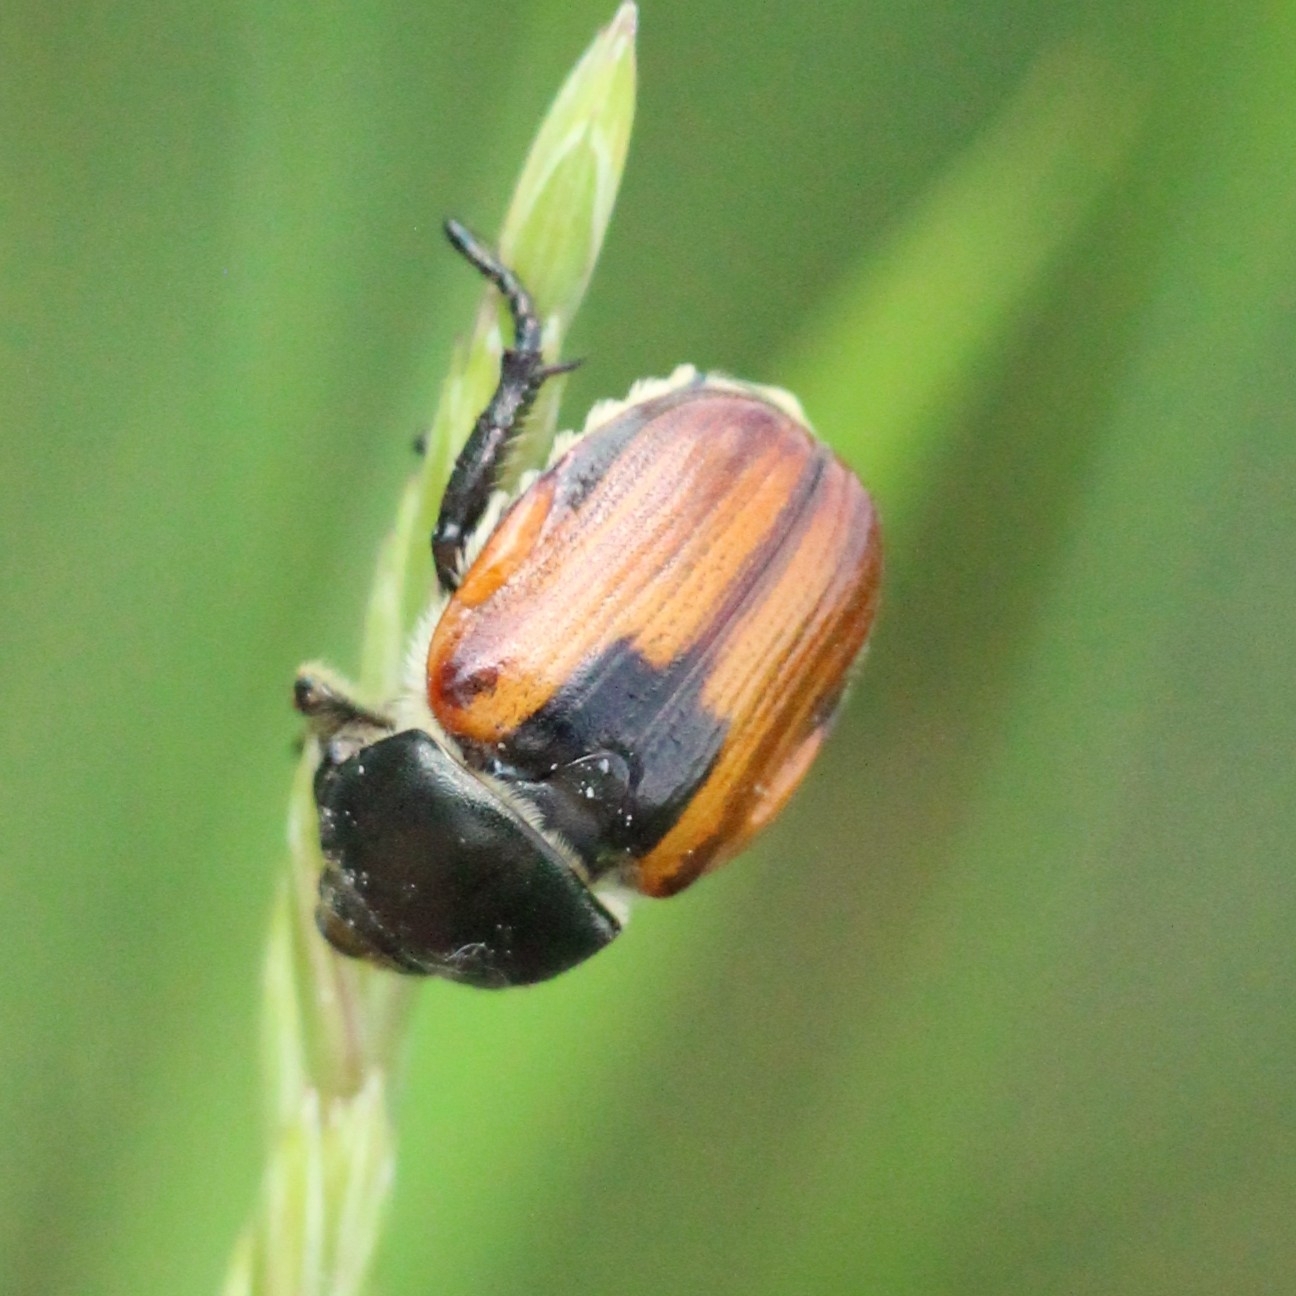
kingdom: Animalia
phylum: Arthropoda
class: Insecta
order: Coleoptera
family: Scarabaeidae
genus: Anisoplia
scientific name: Anisoplia austriaca
